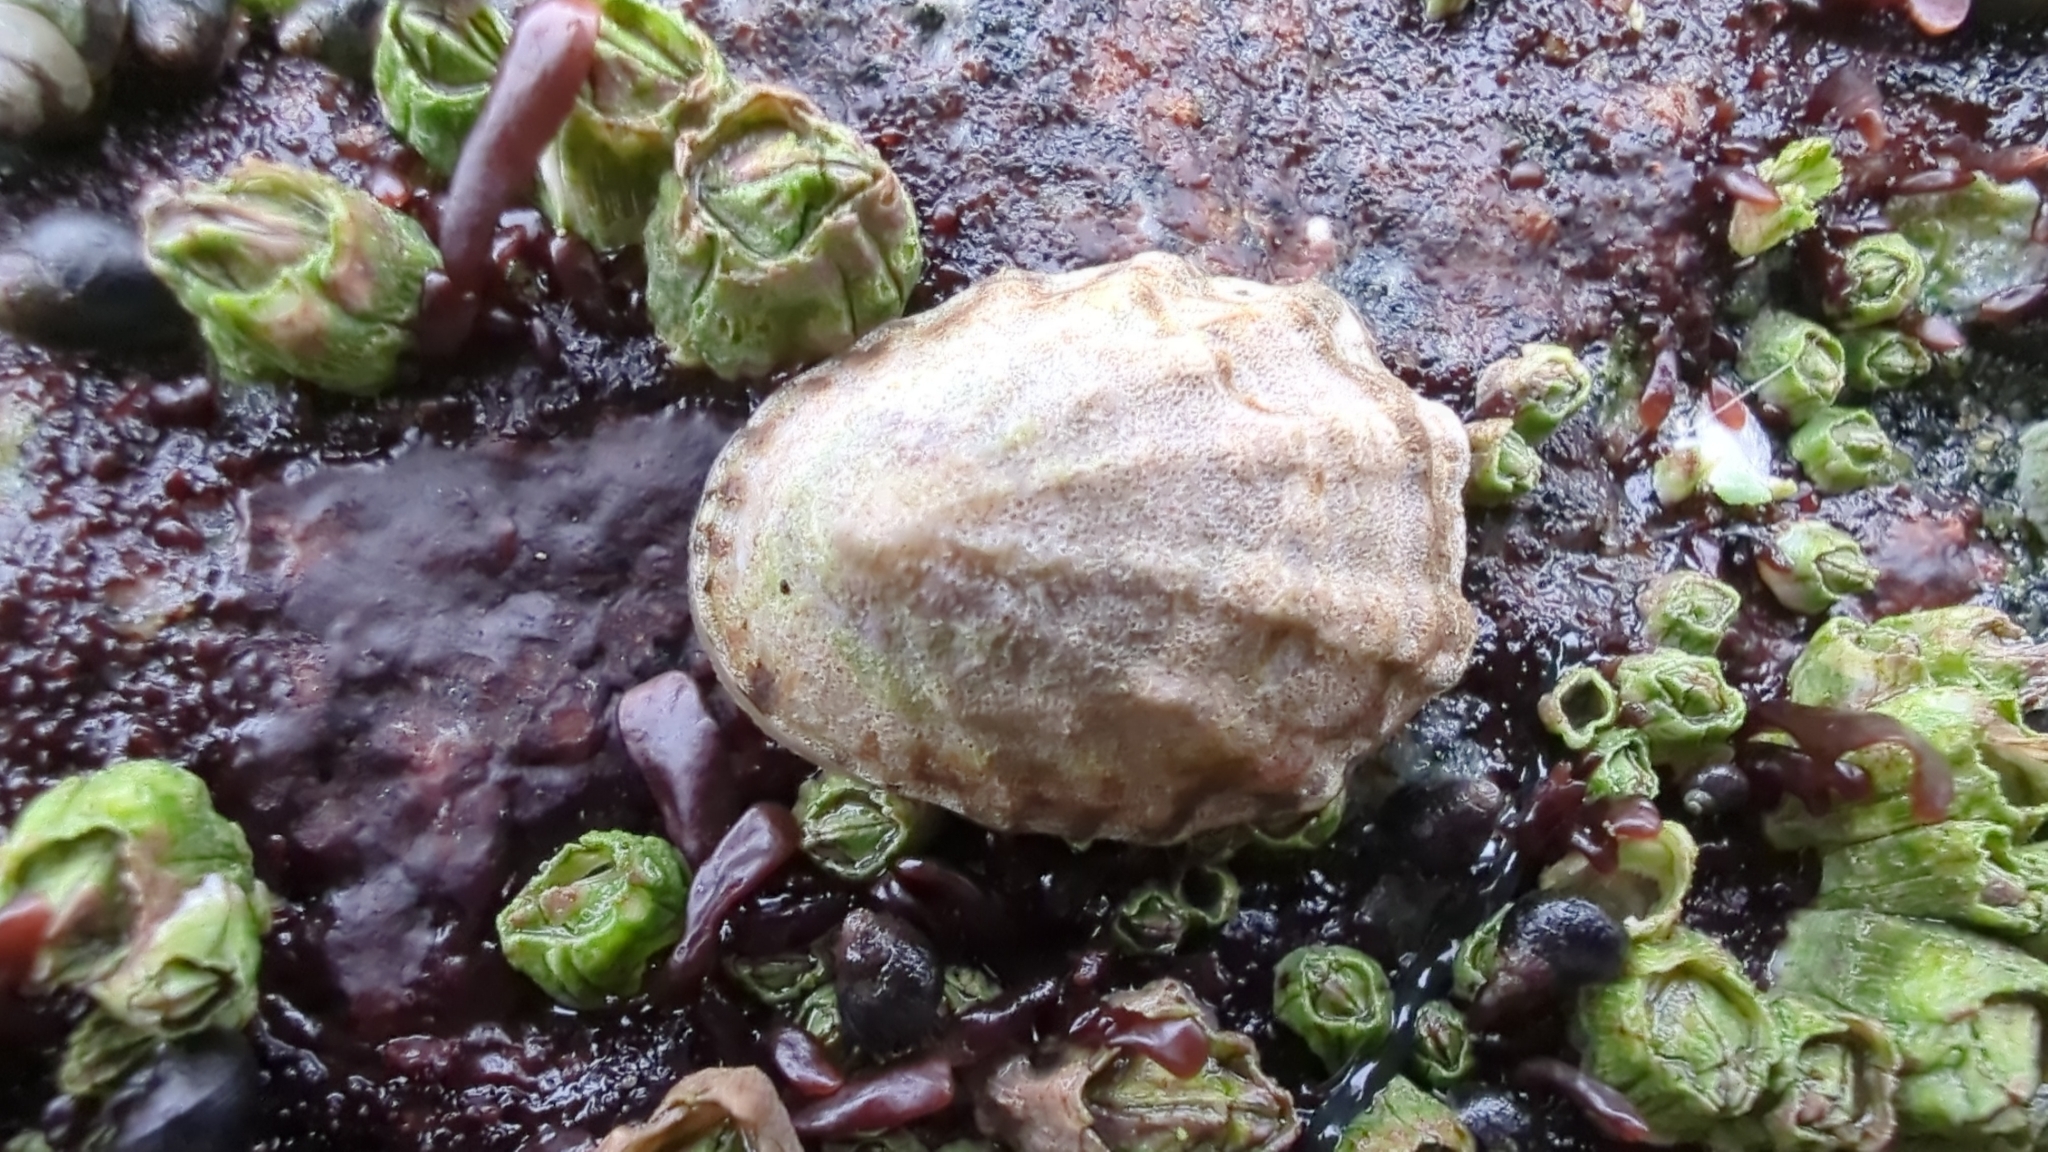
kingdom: Animalia
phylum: Mollusca
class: Gastropoda
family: Lottiidae
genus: Lottia
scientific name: Lottia digitalis
